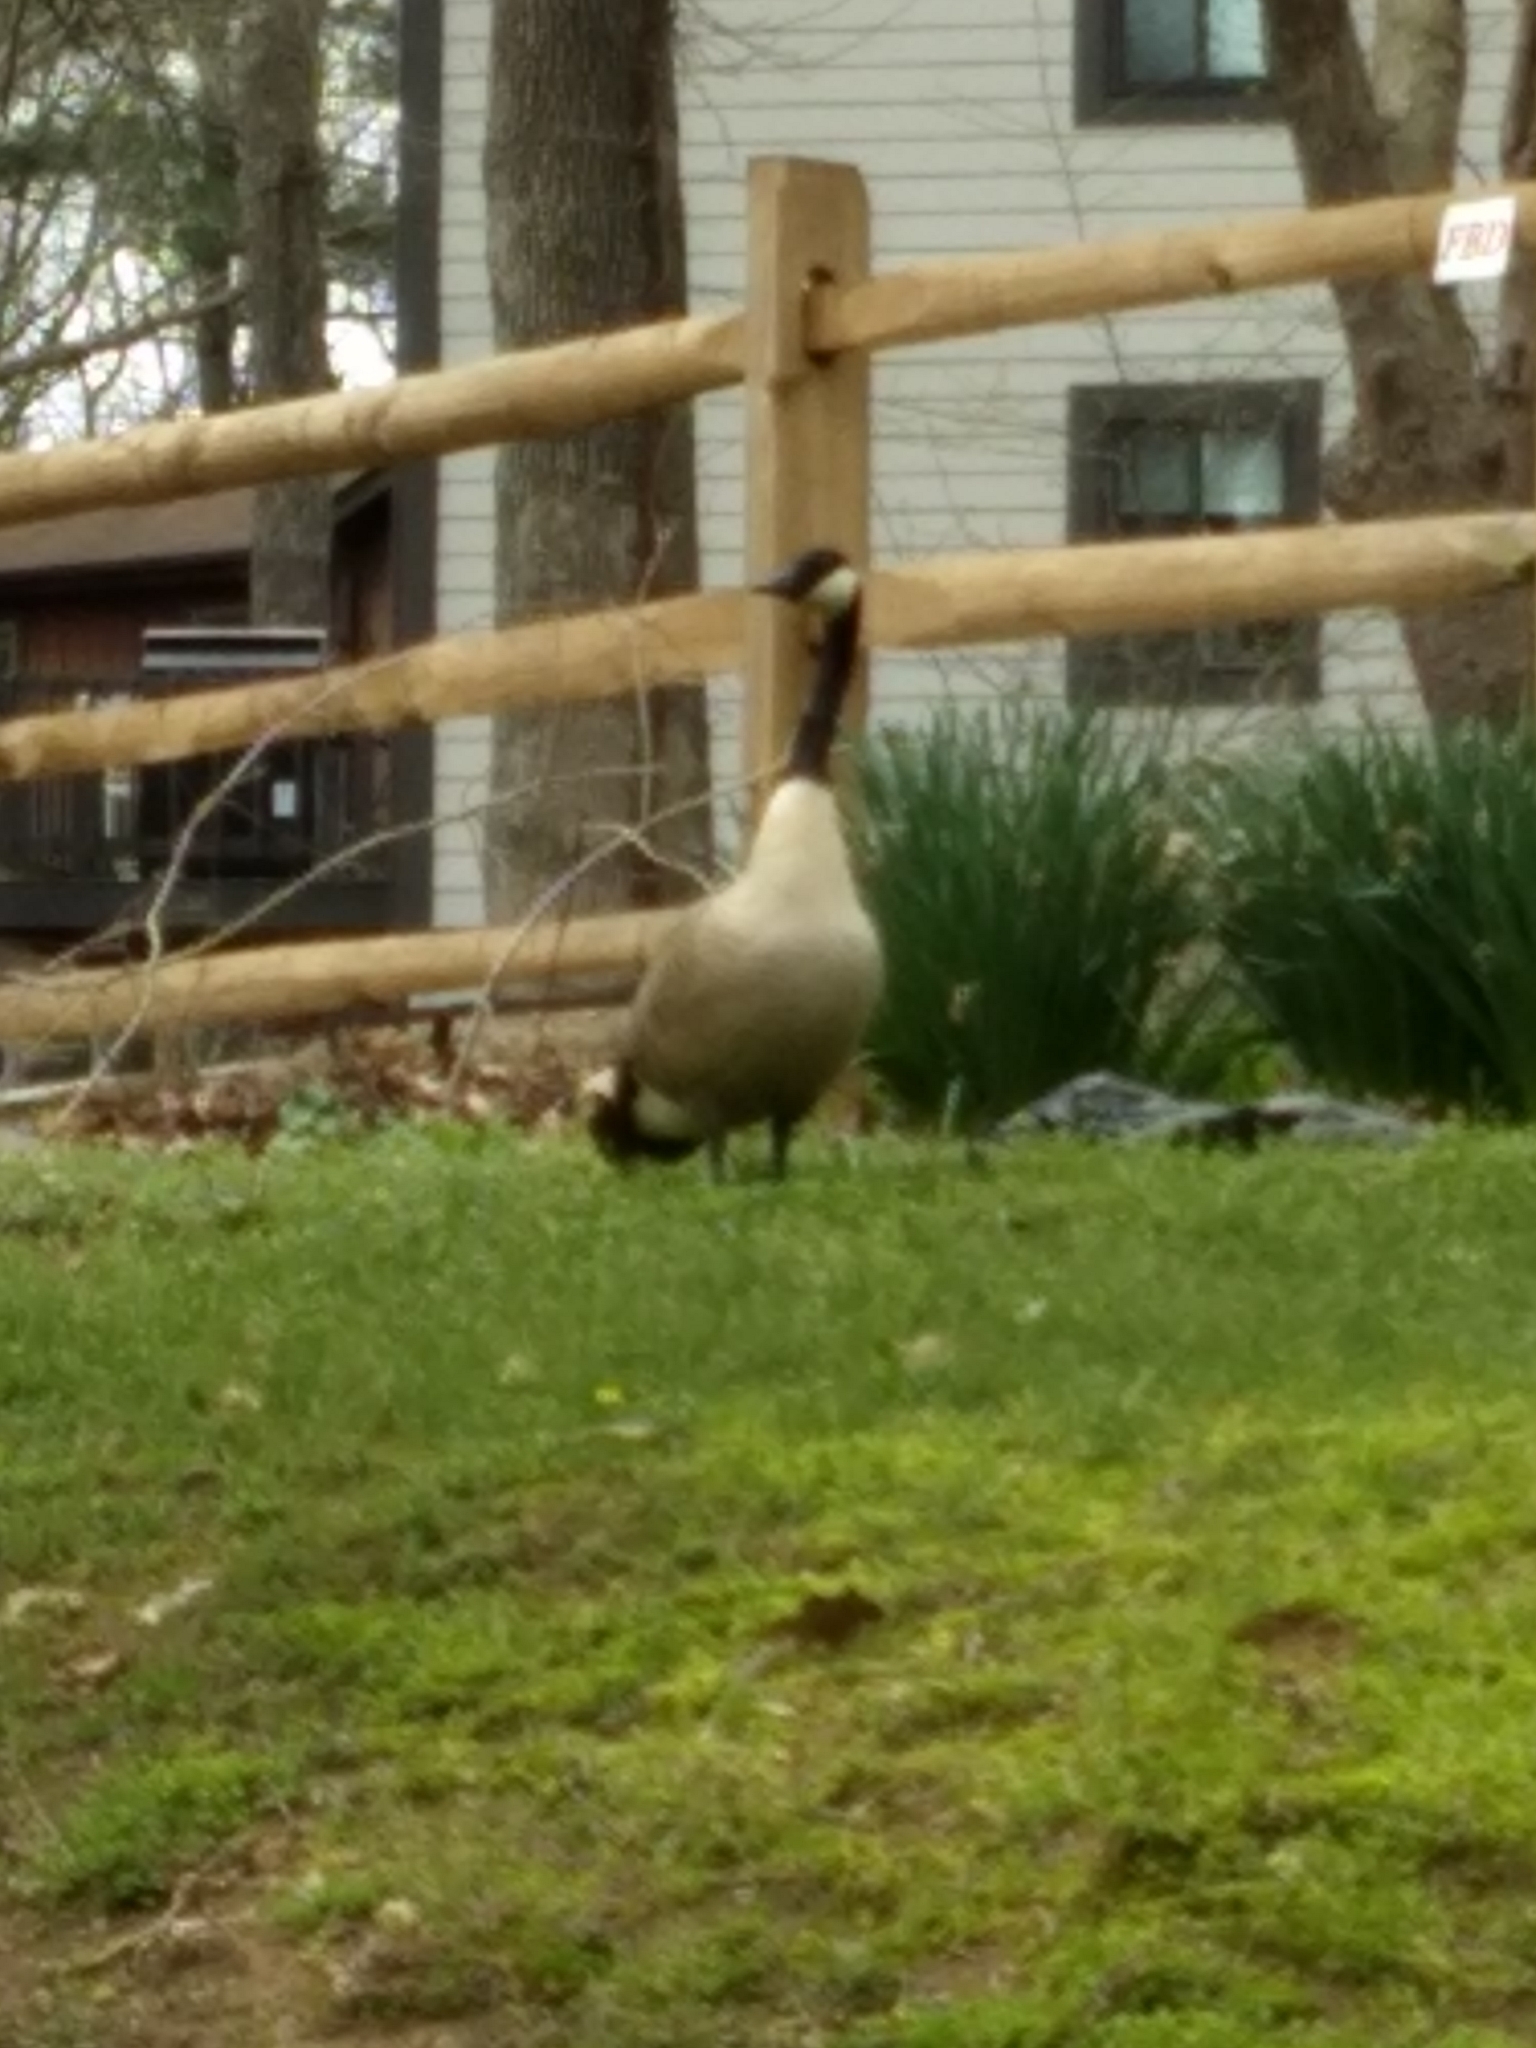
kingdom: Animalia
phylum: Chordata
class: Aves
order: Anseriformes
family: Anatidae
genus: Branta
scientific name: Branta canadensis
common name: Canada goose
